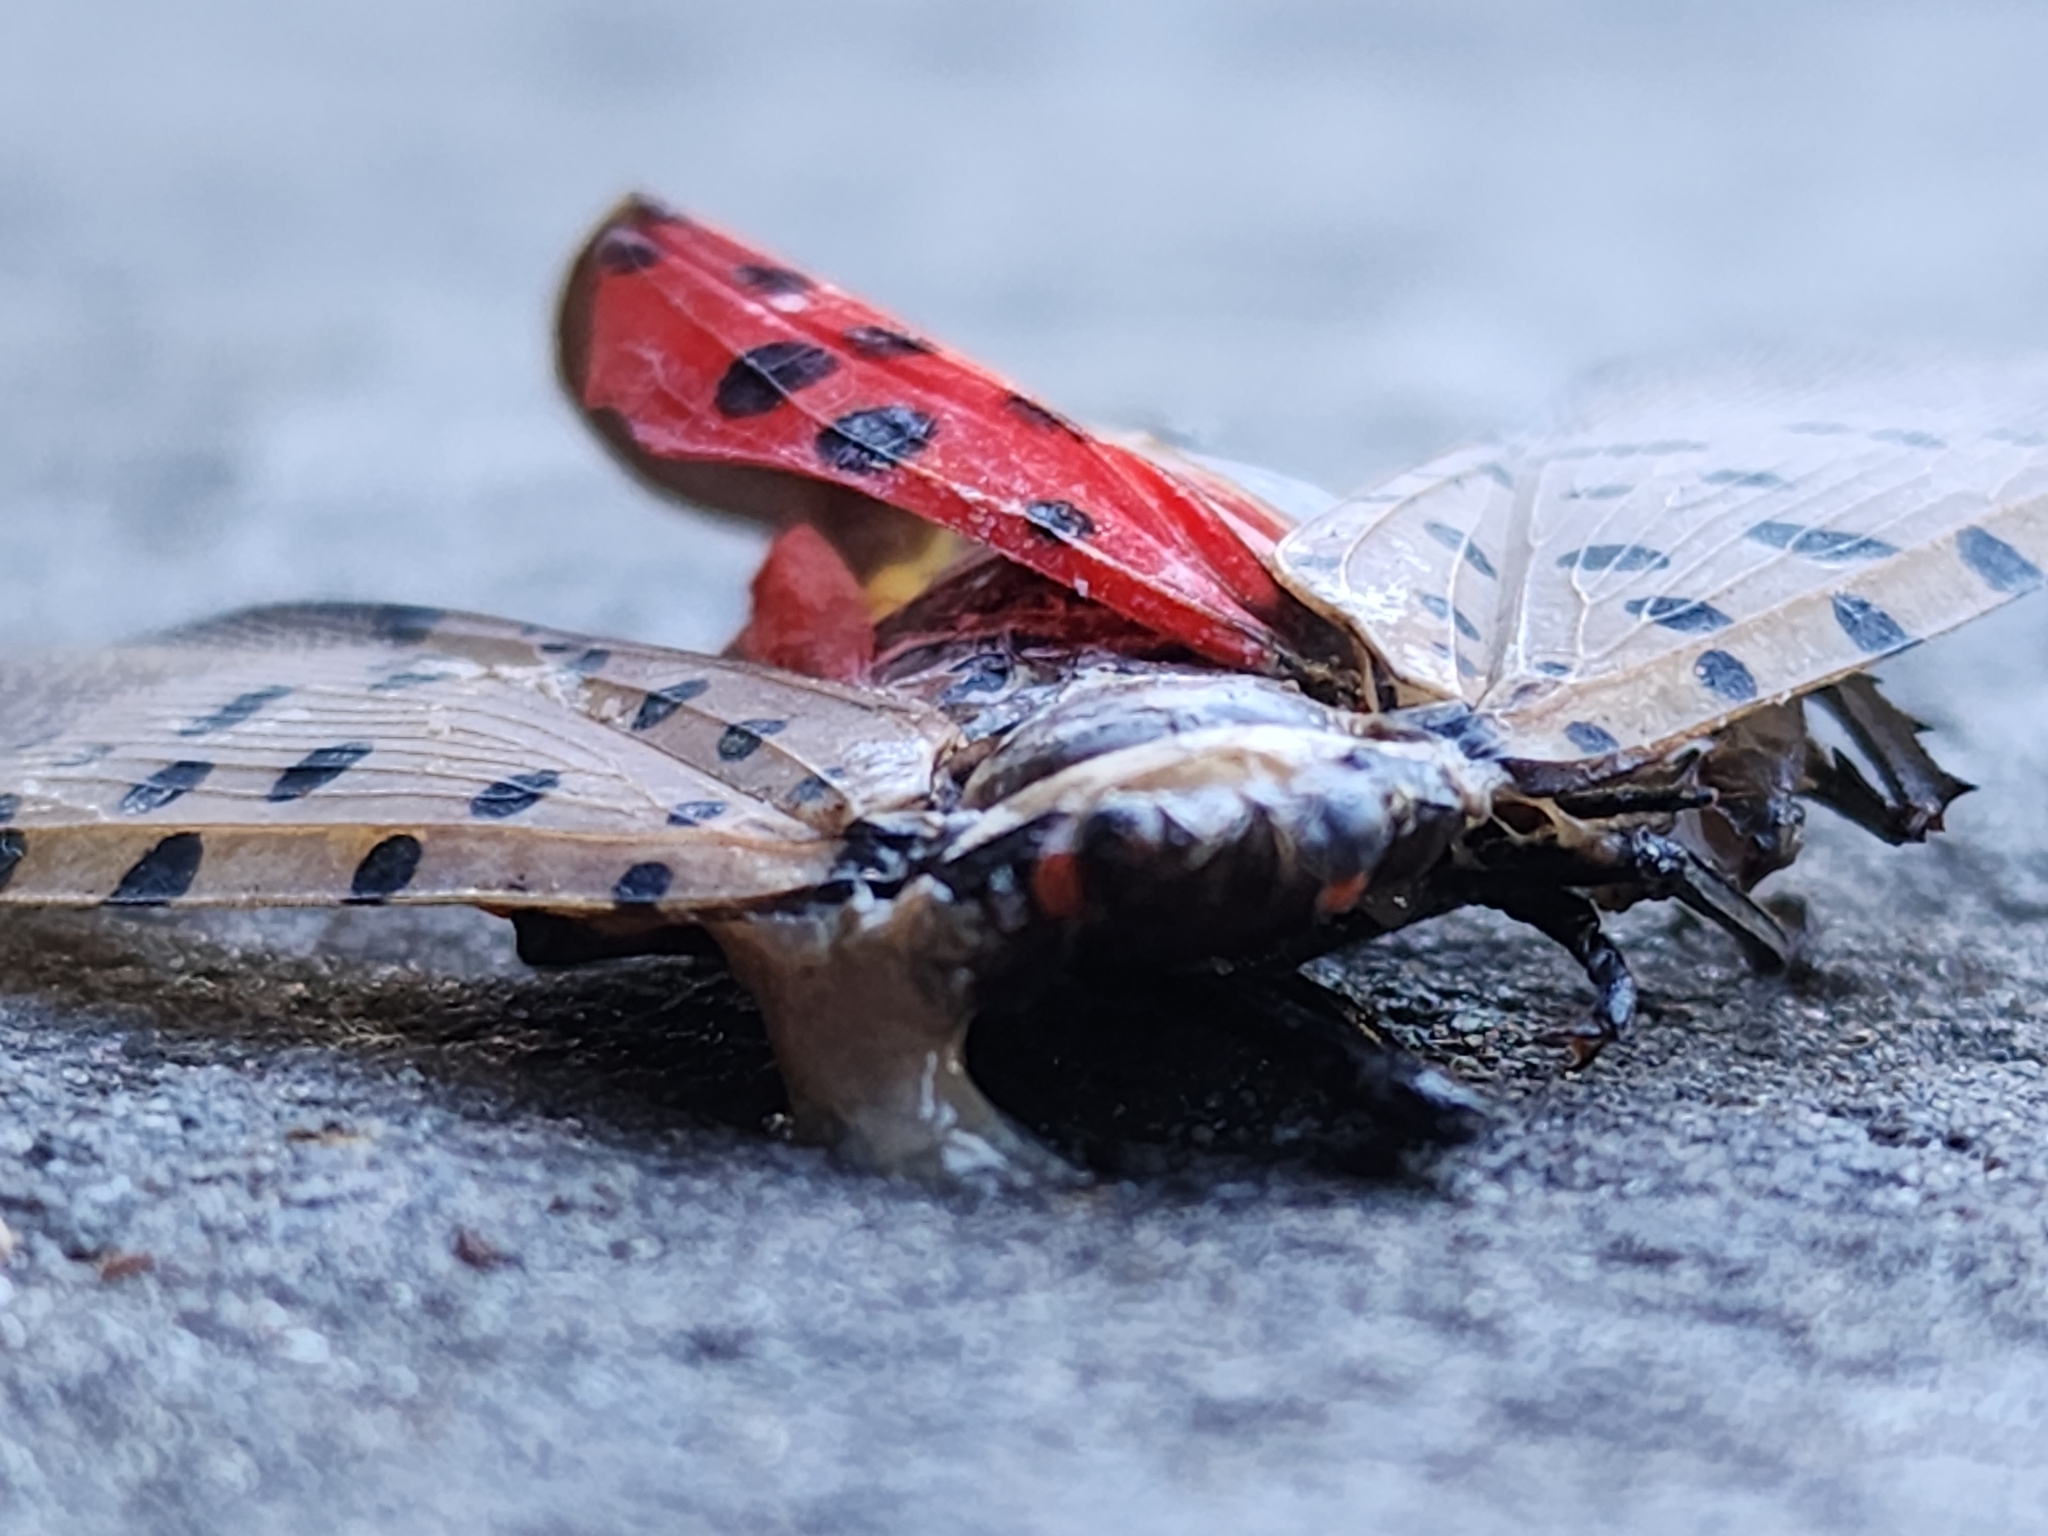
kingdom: Animalia
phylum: Arthropoda
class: Insecta
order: Hemiptera
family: Fulgoridae
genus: Lycorma
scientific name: Lycorma delicatula
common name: Spotted lanternfly
